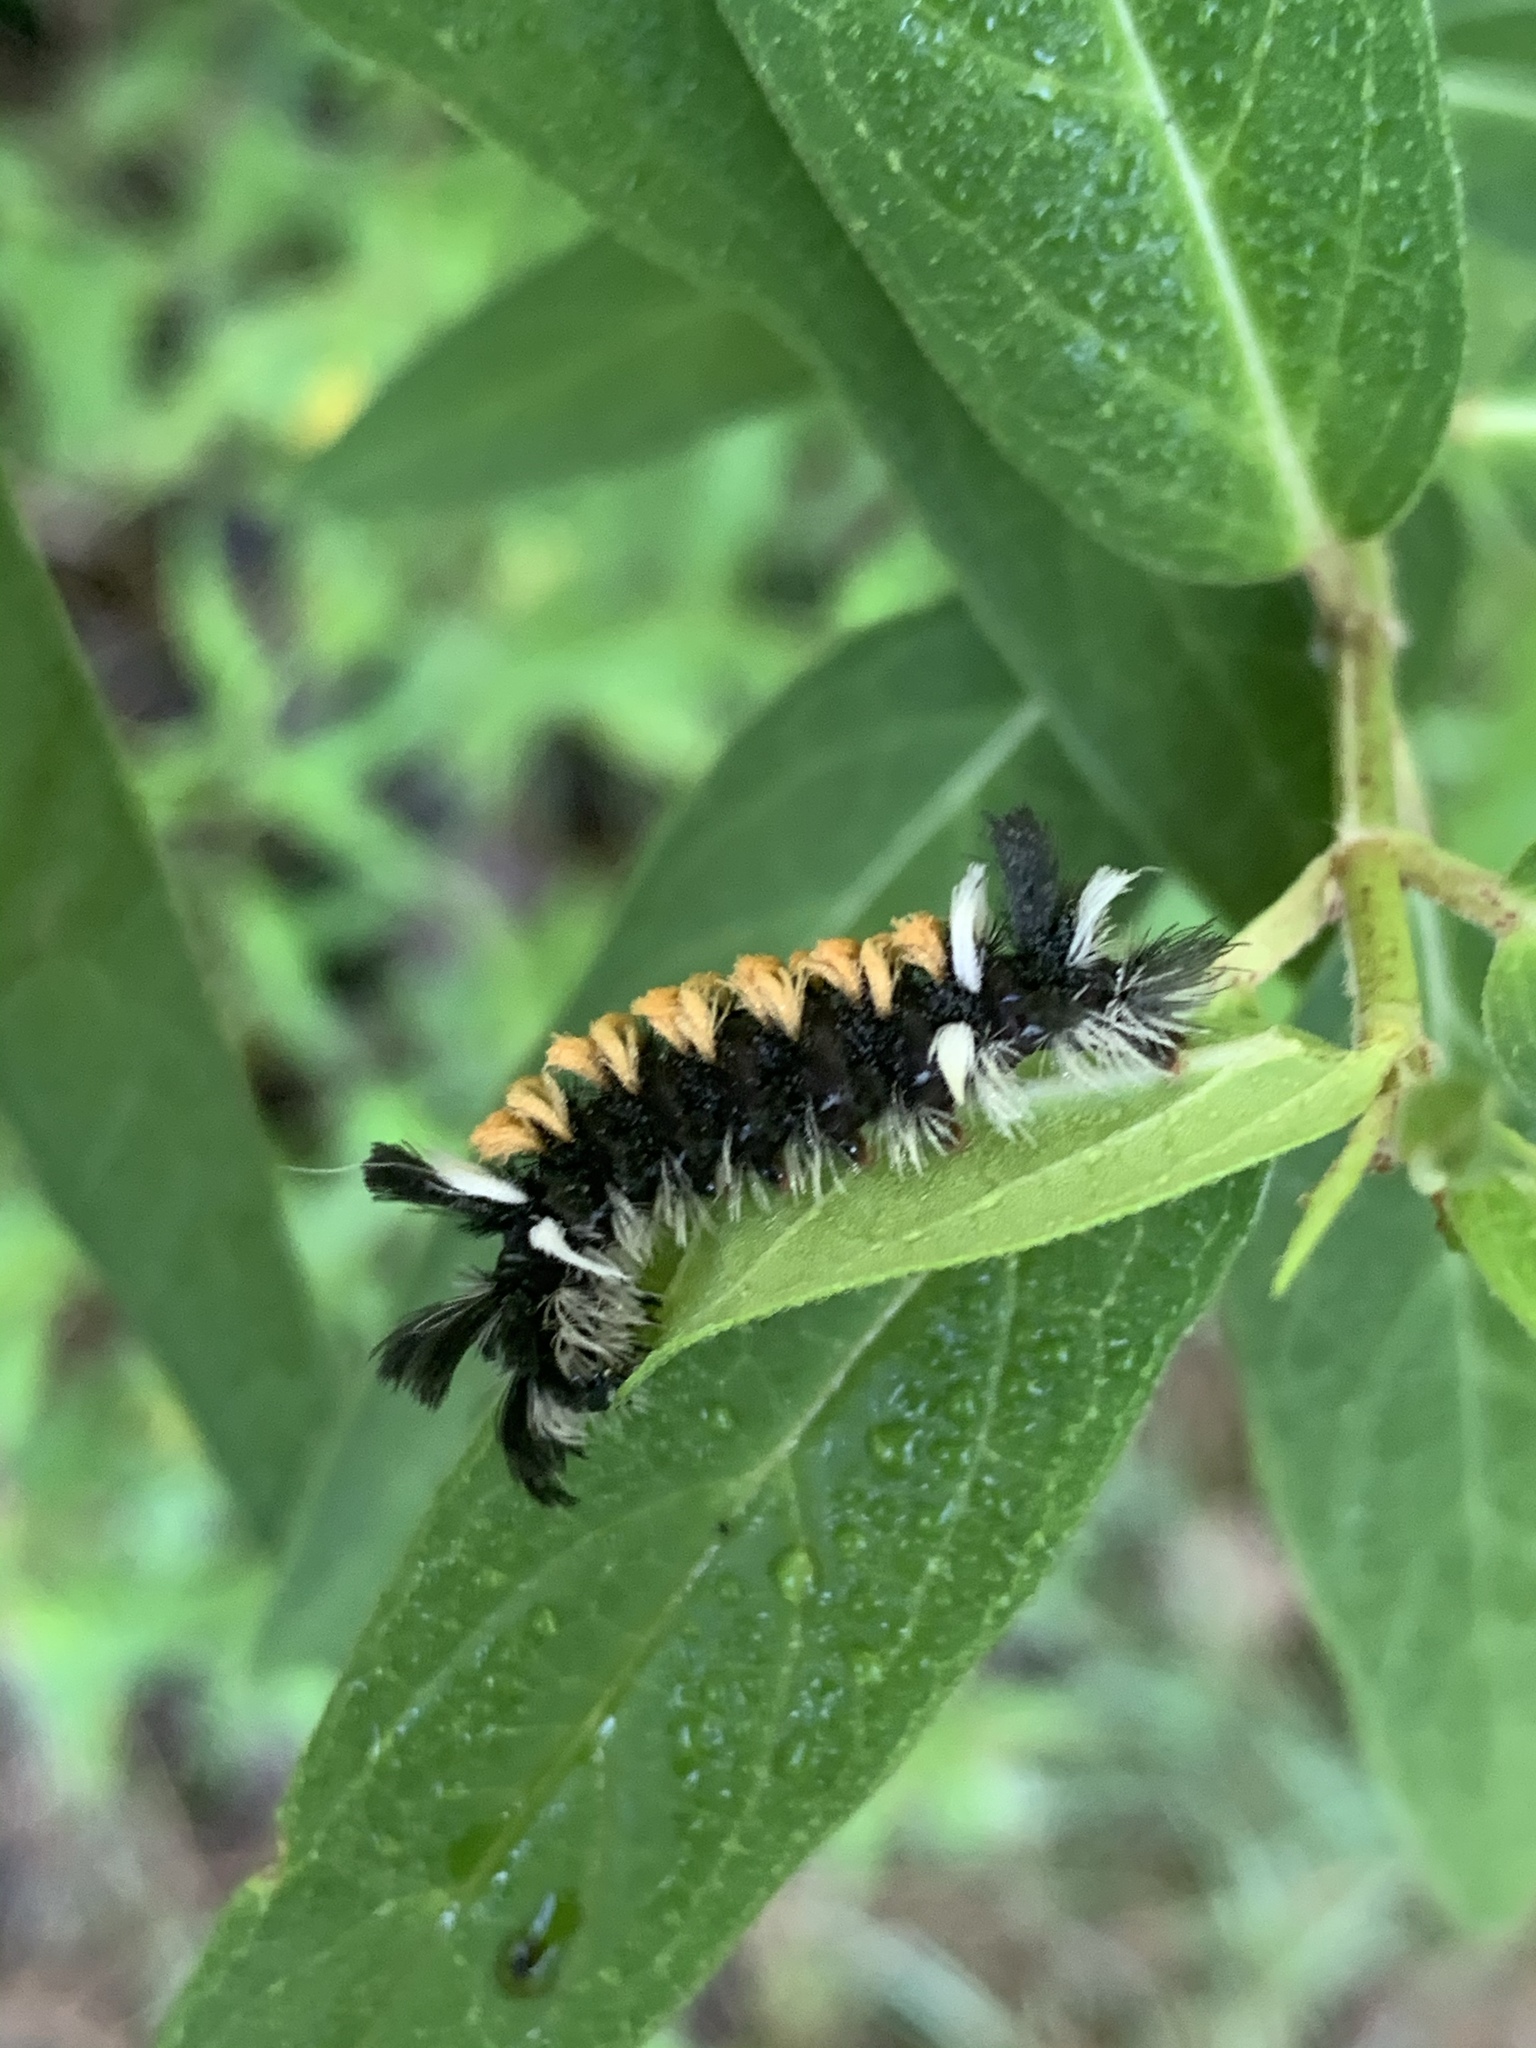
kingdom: Animalia
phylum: Arthropoda
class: Insecta
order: Lepidoptera
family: Erebidae
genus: Euchaetes
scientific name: Euchaetes egle
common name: Milkweed tussock moth
